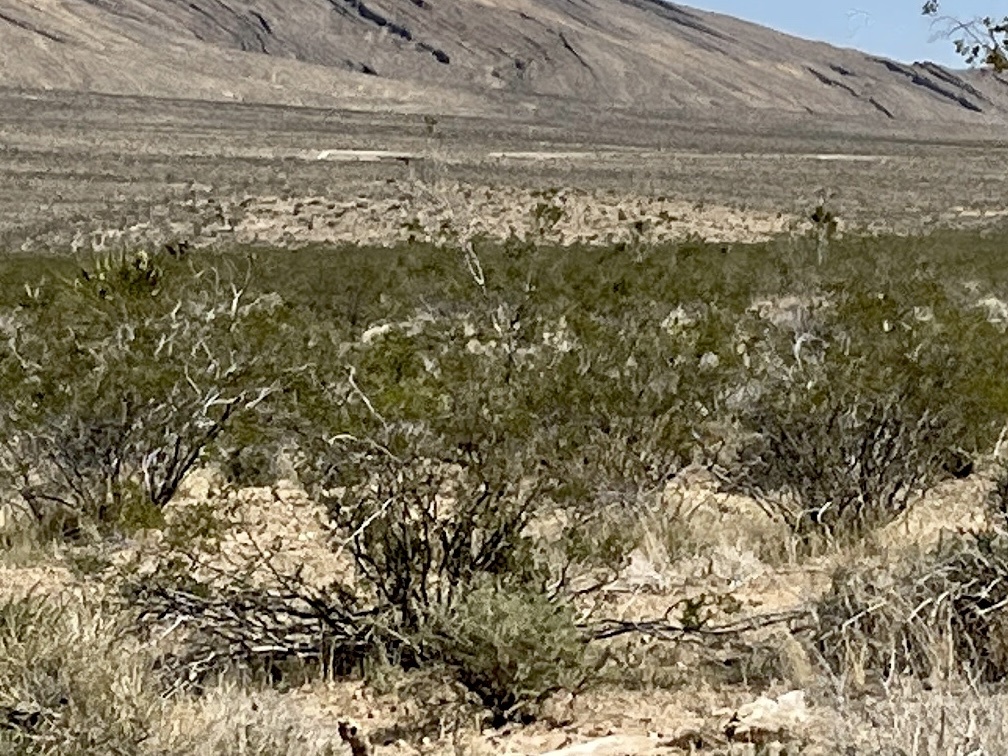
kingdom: Plantae
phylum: Tracheophyta
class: Magnoliopsida
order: Zygophyllales
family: Zygophyllaceae
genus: Larrea
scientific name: Larrea tridentata
